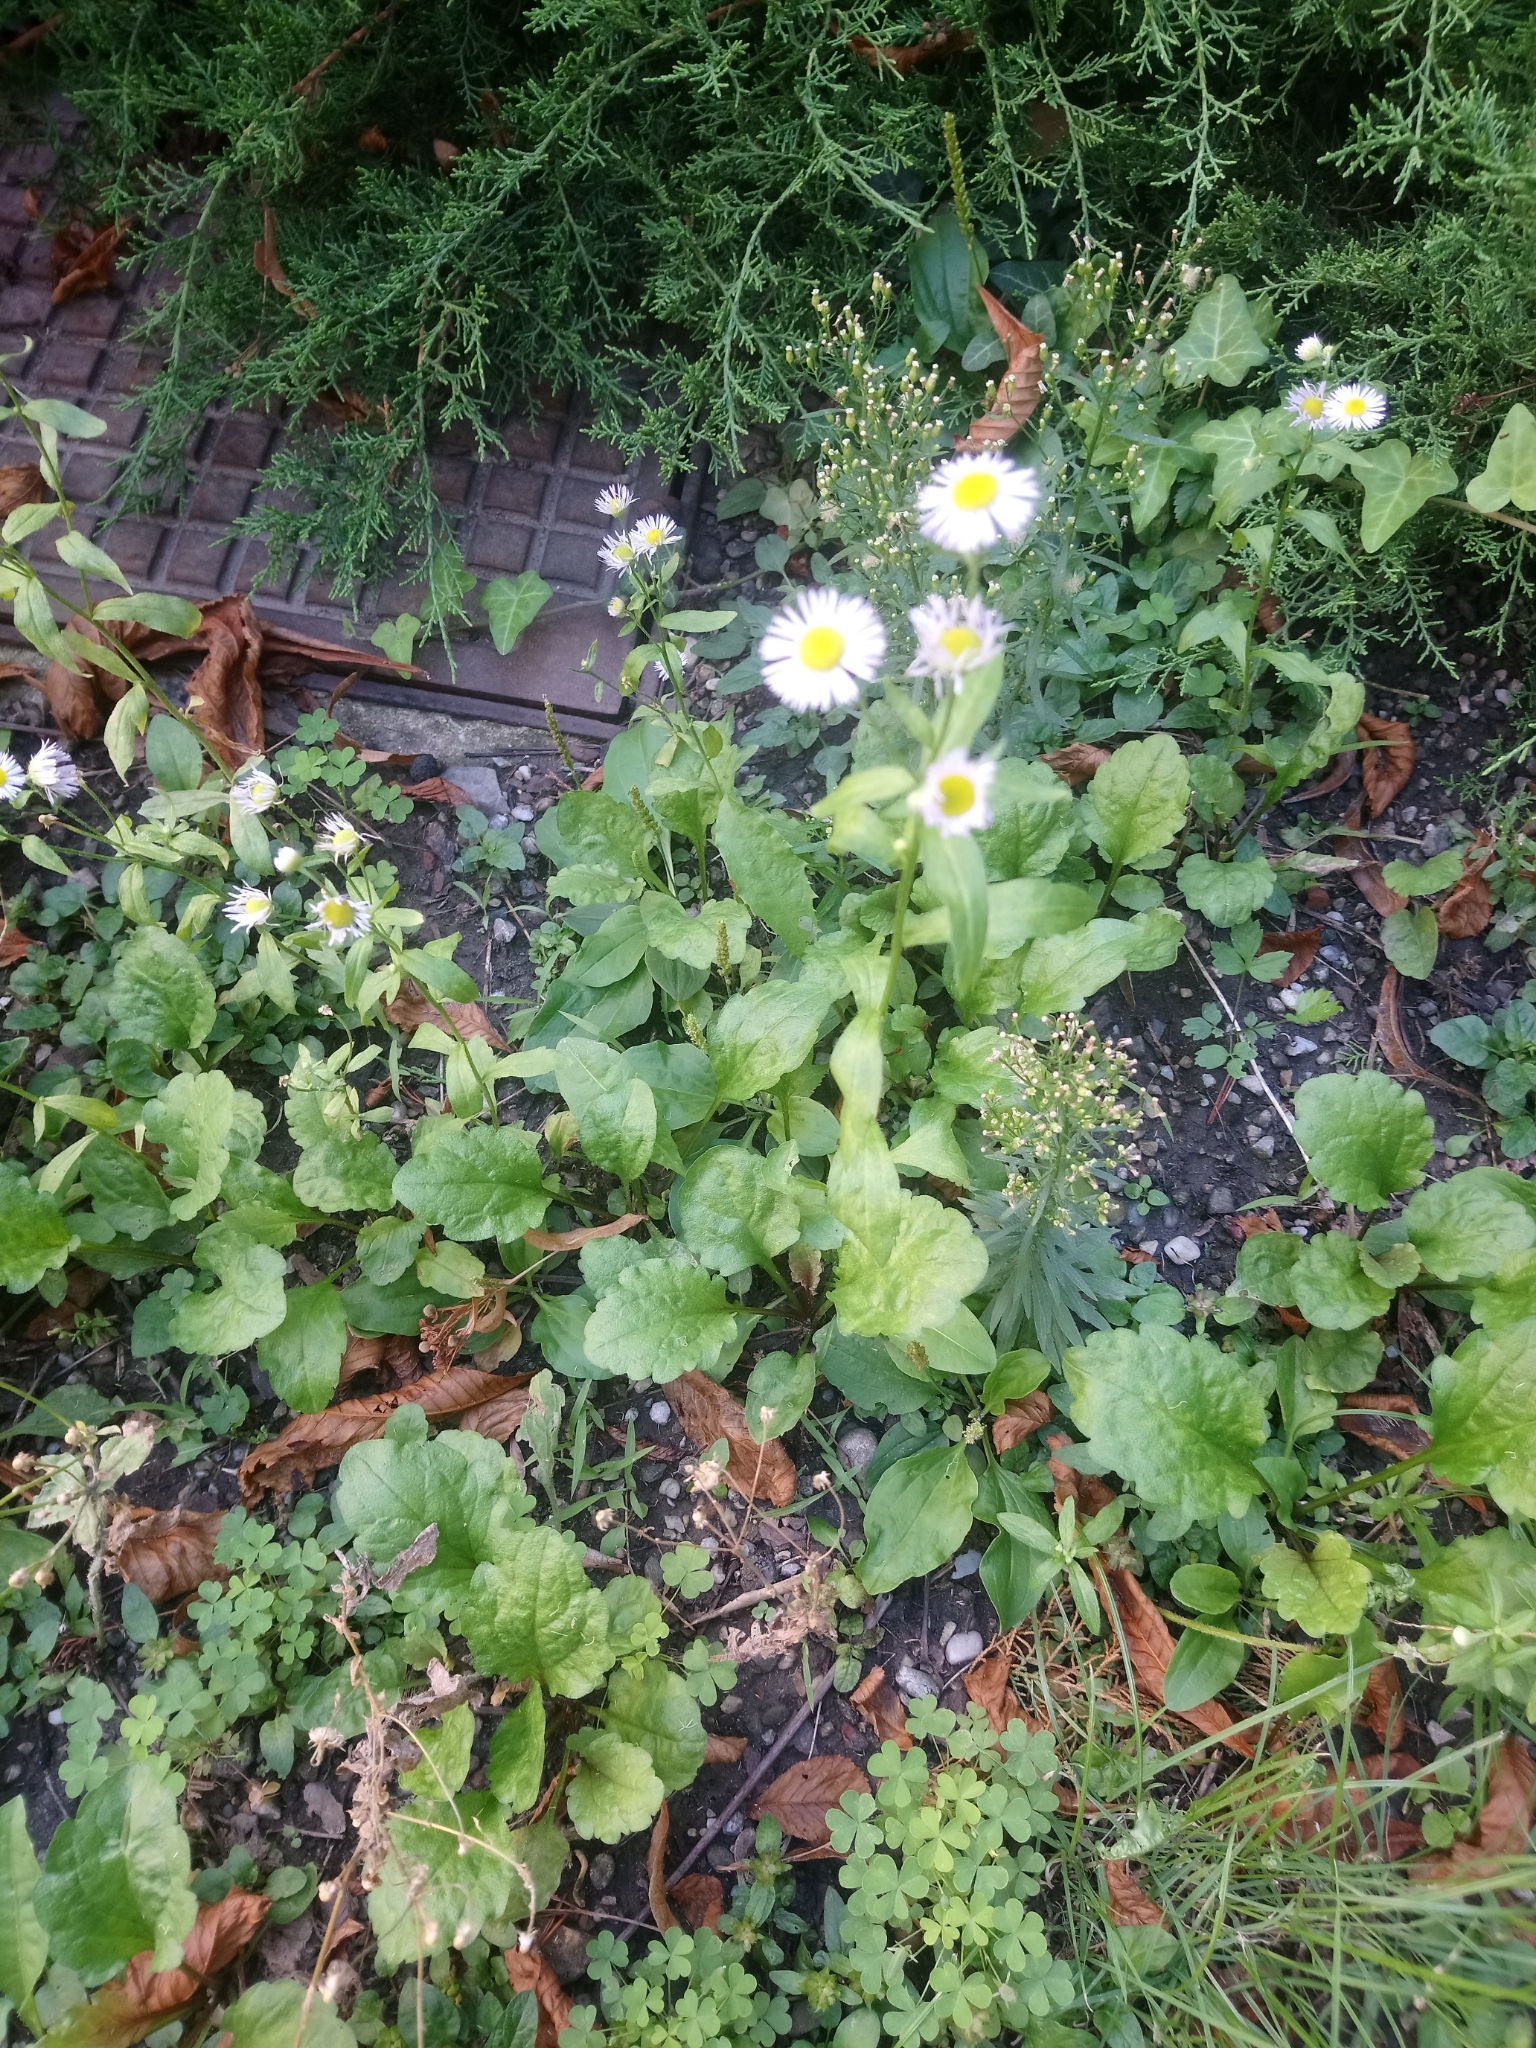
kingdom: Plantae
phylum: Tracheophyta
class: Magnoliopsida
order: Asterales
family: Asteraceae
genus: Erigeron
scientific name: Erigeron annuus
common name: Tall fleabane
